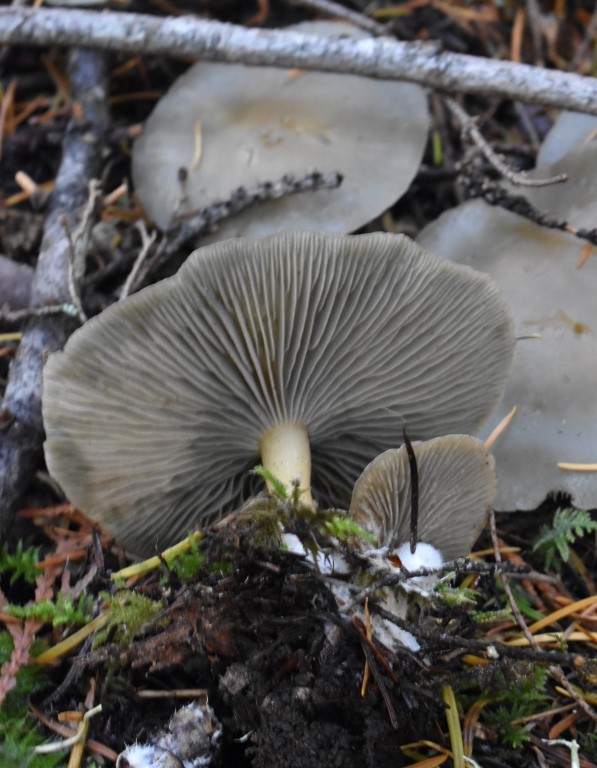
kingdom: Fungi
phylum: Basidiomycota
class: Agaricomycetes
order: Agaricales
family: Tricholomataceae
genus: Collybia
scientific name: Collybia
